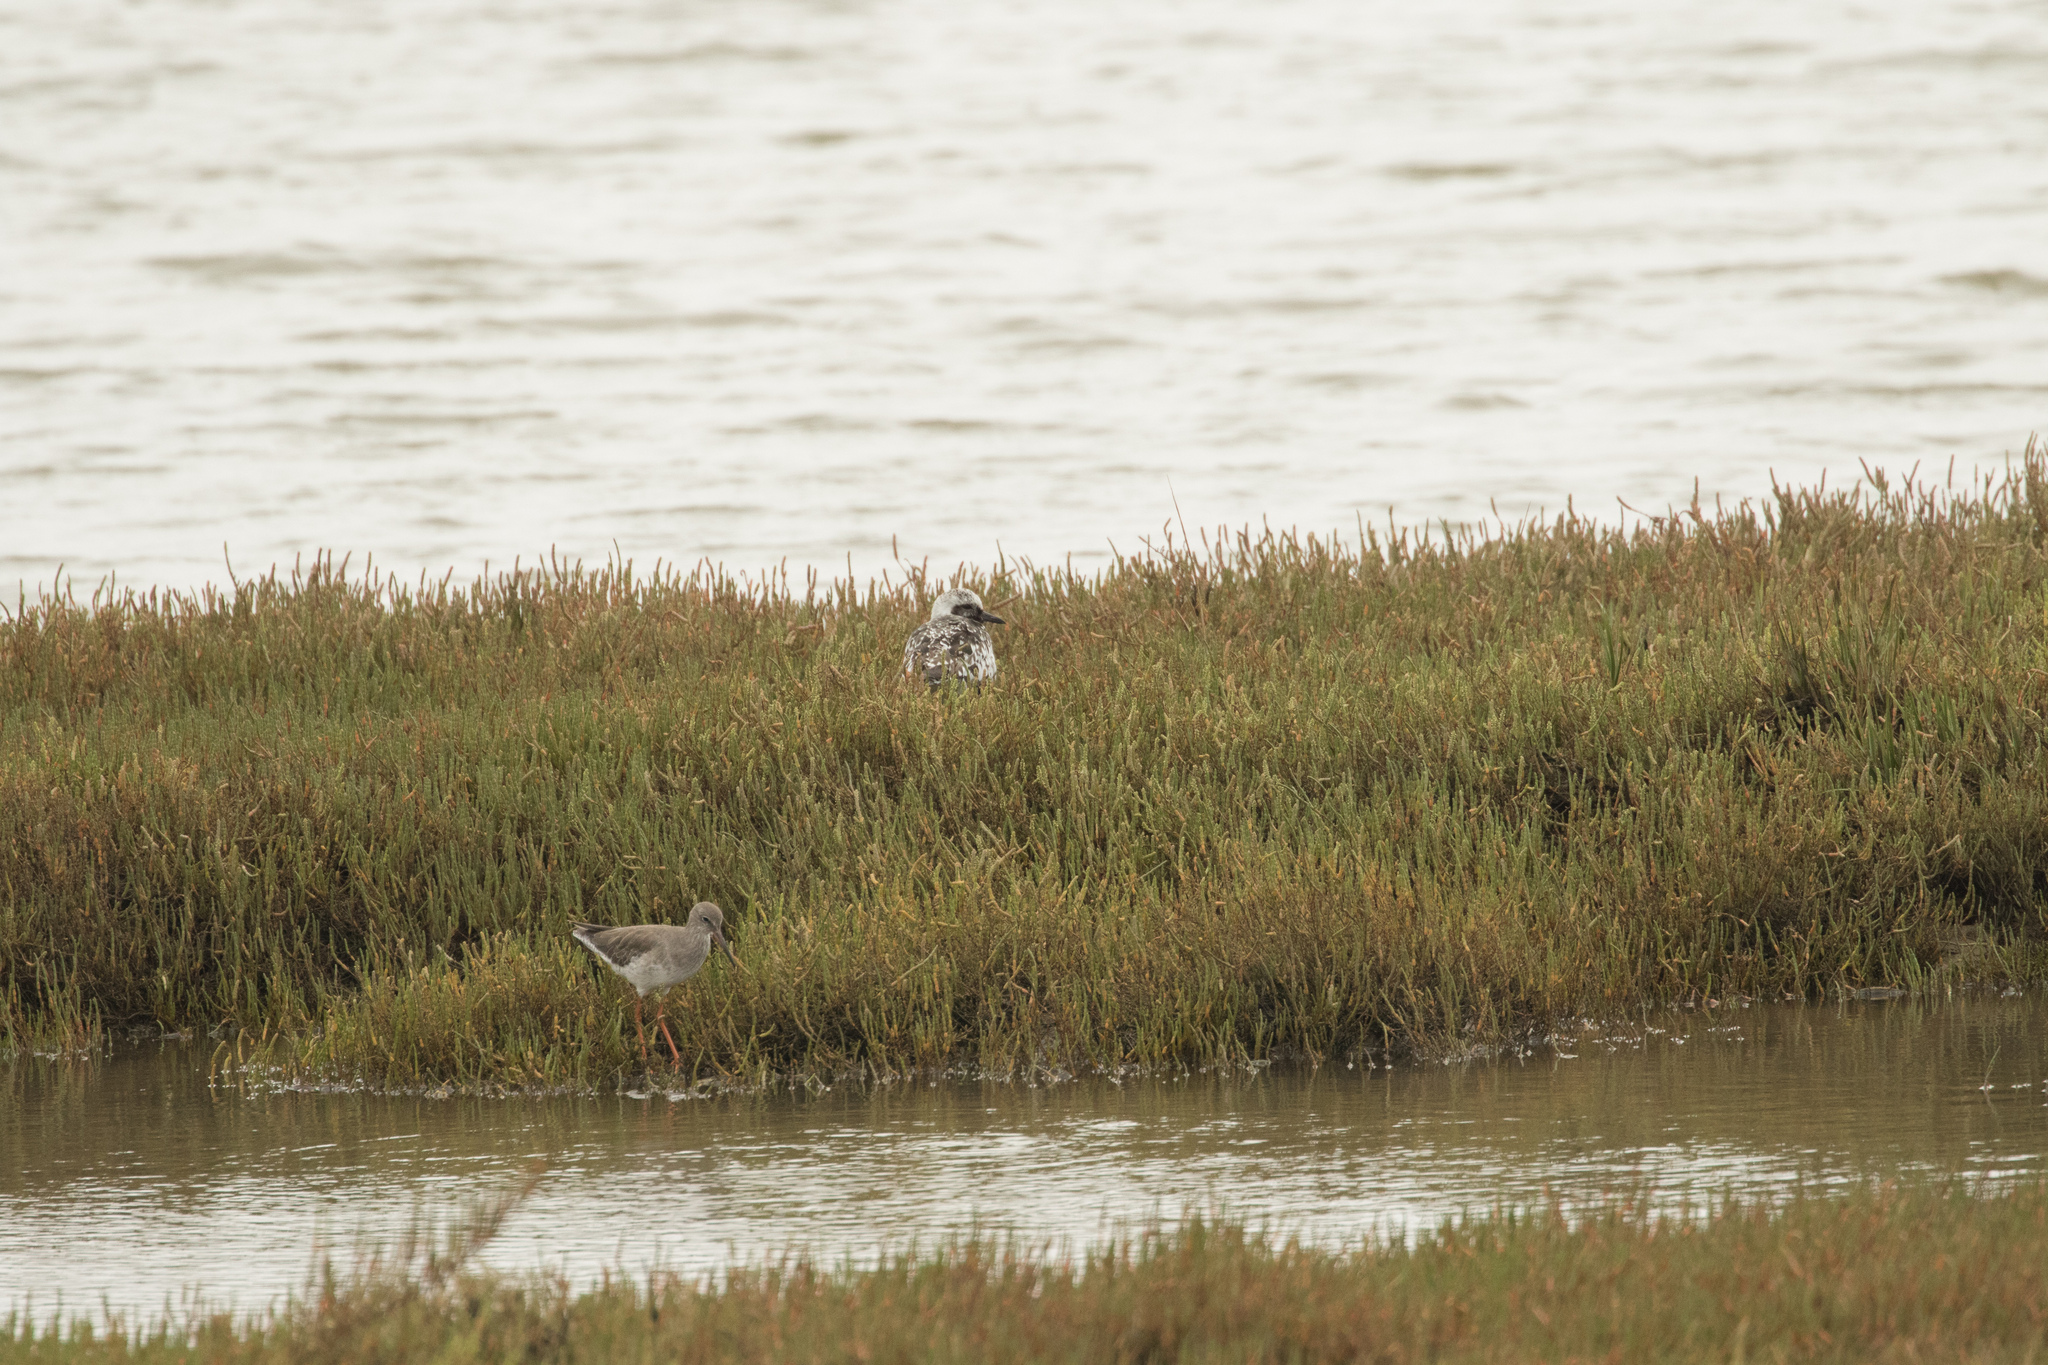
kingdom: Animalia
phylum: Chordata
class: Aves
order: Charadriiformes
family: Scolopacidae
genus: Tringa
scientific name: Tringa totanus
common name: Common redshank
